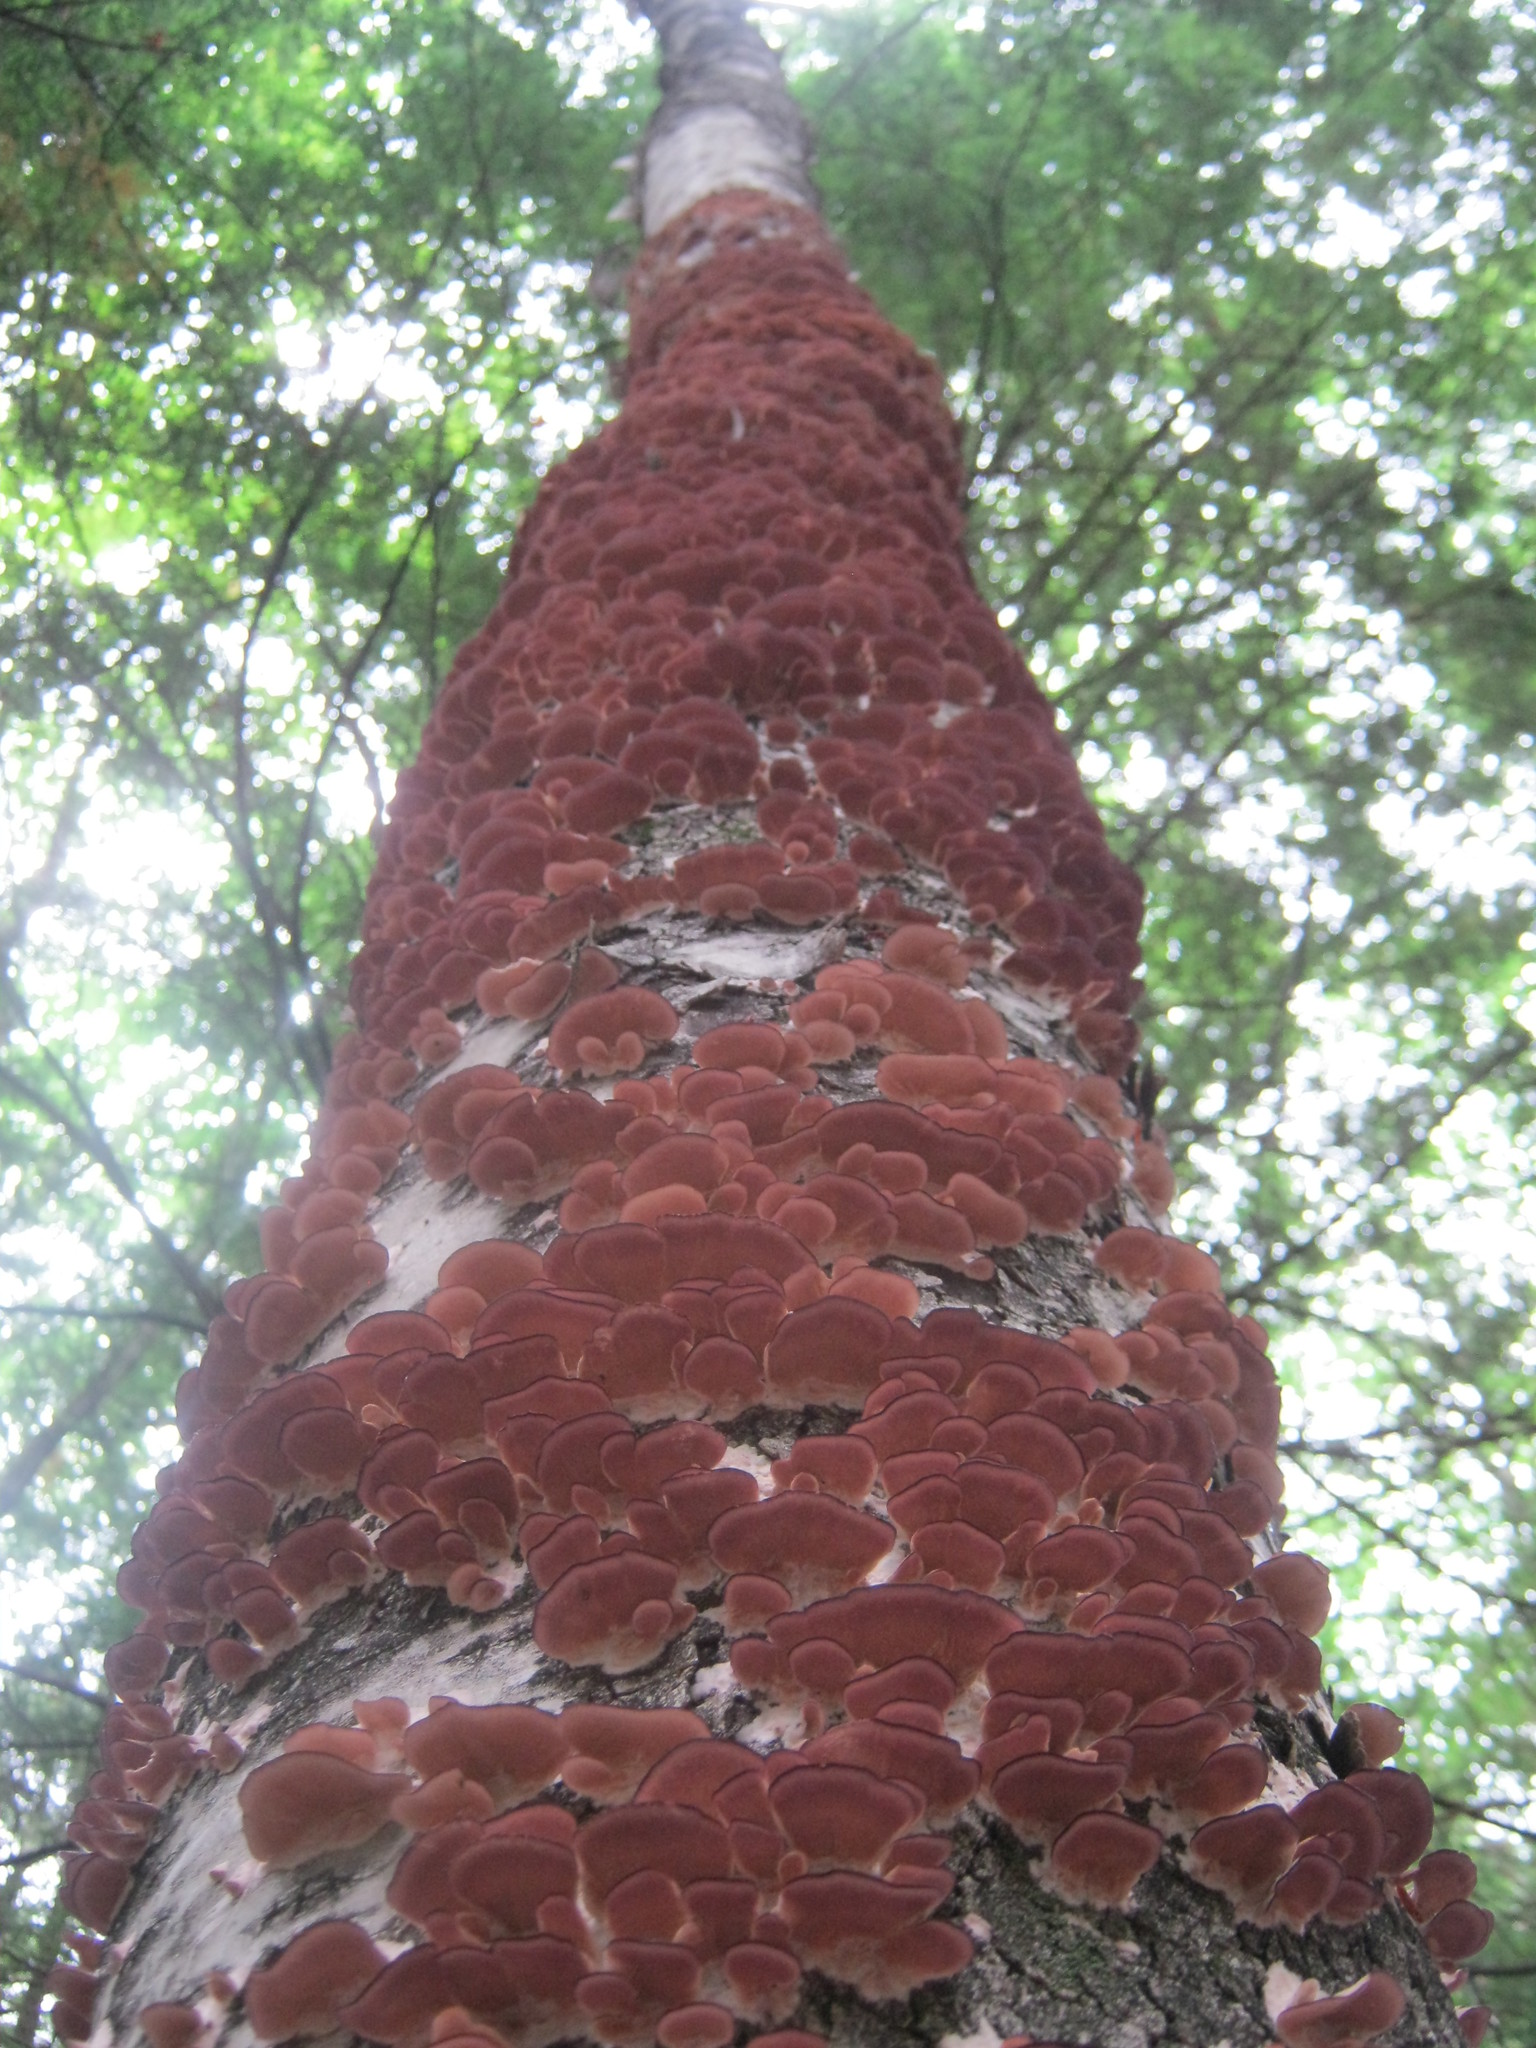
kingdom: Fungi
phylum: Basidiomycota
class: Agaricomycetes
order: Hymenochaetales
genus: Trichaptum
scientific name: Trichaptum biforme
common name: Violet-toothed polypore
